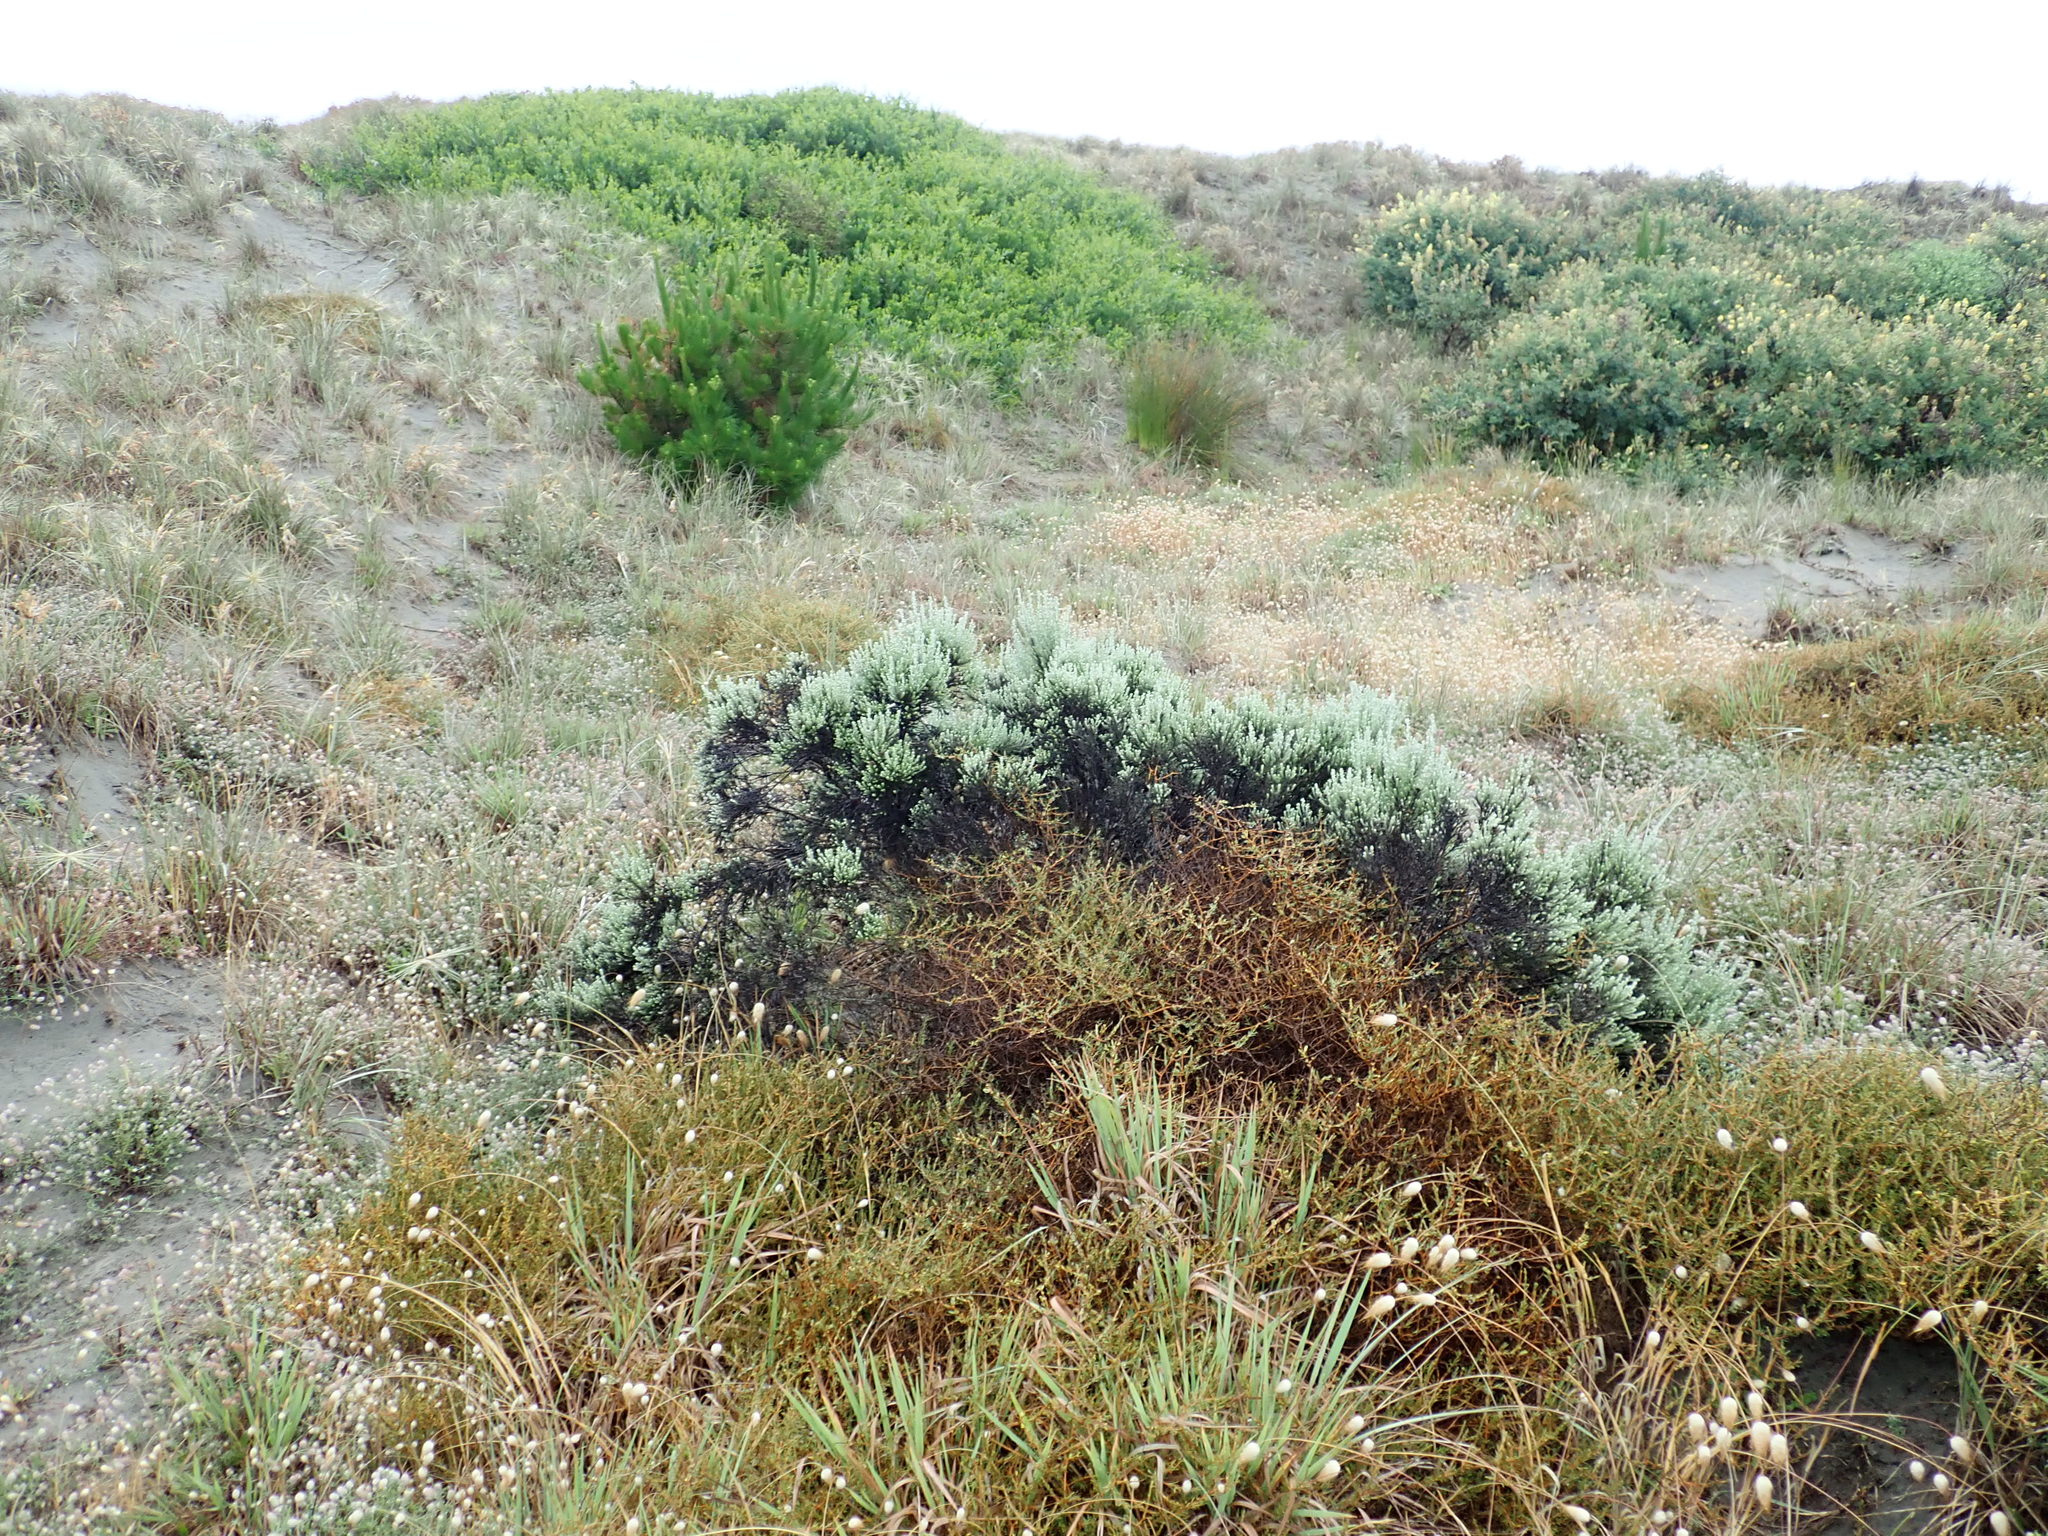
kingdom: Plantae
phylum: Tracheophyta
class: Magnoliopsida
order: Asterales
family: Asteraceae
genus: Ozothamnus
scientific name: Ozothamnus leptophyllus
